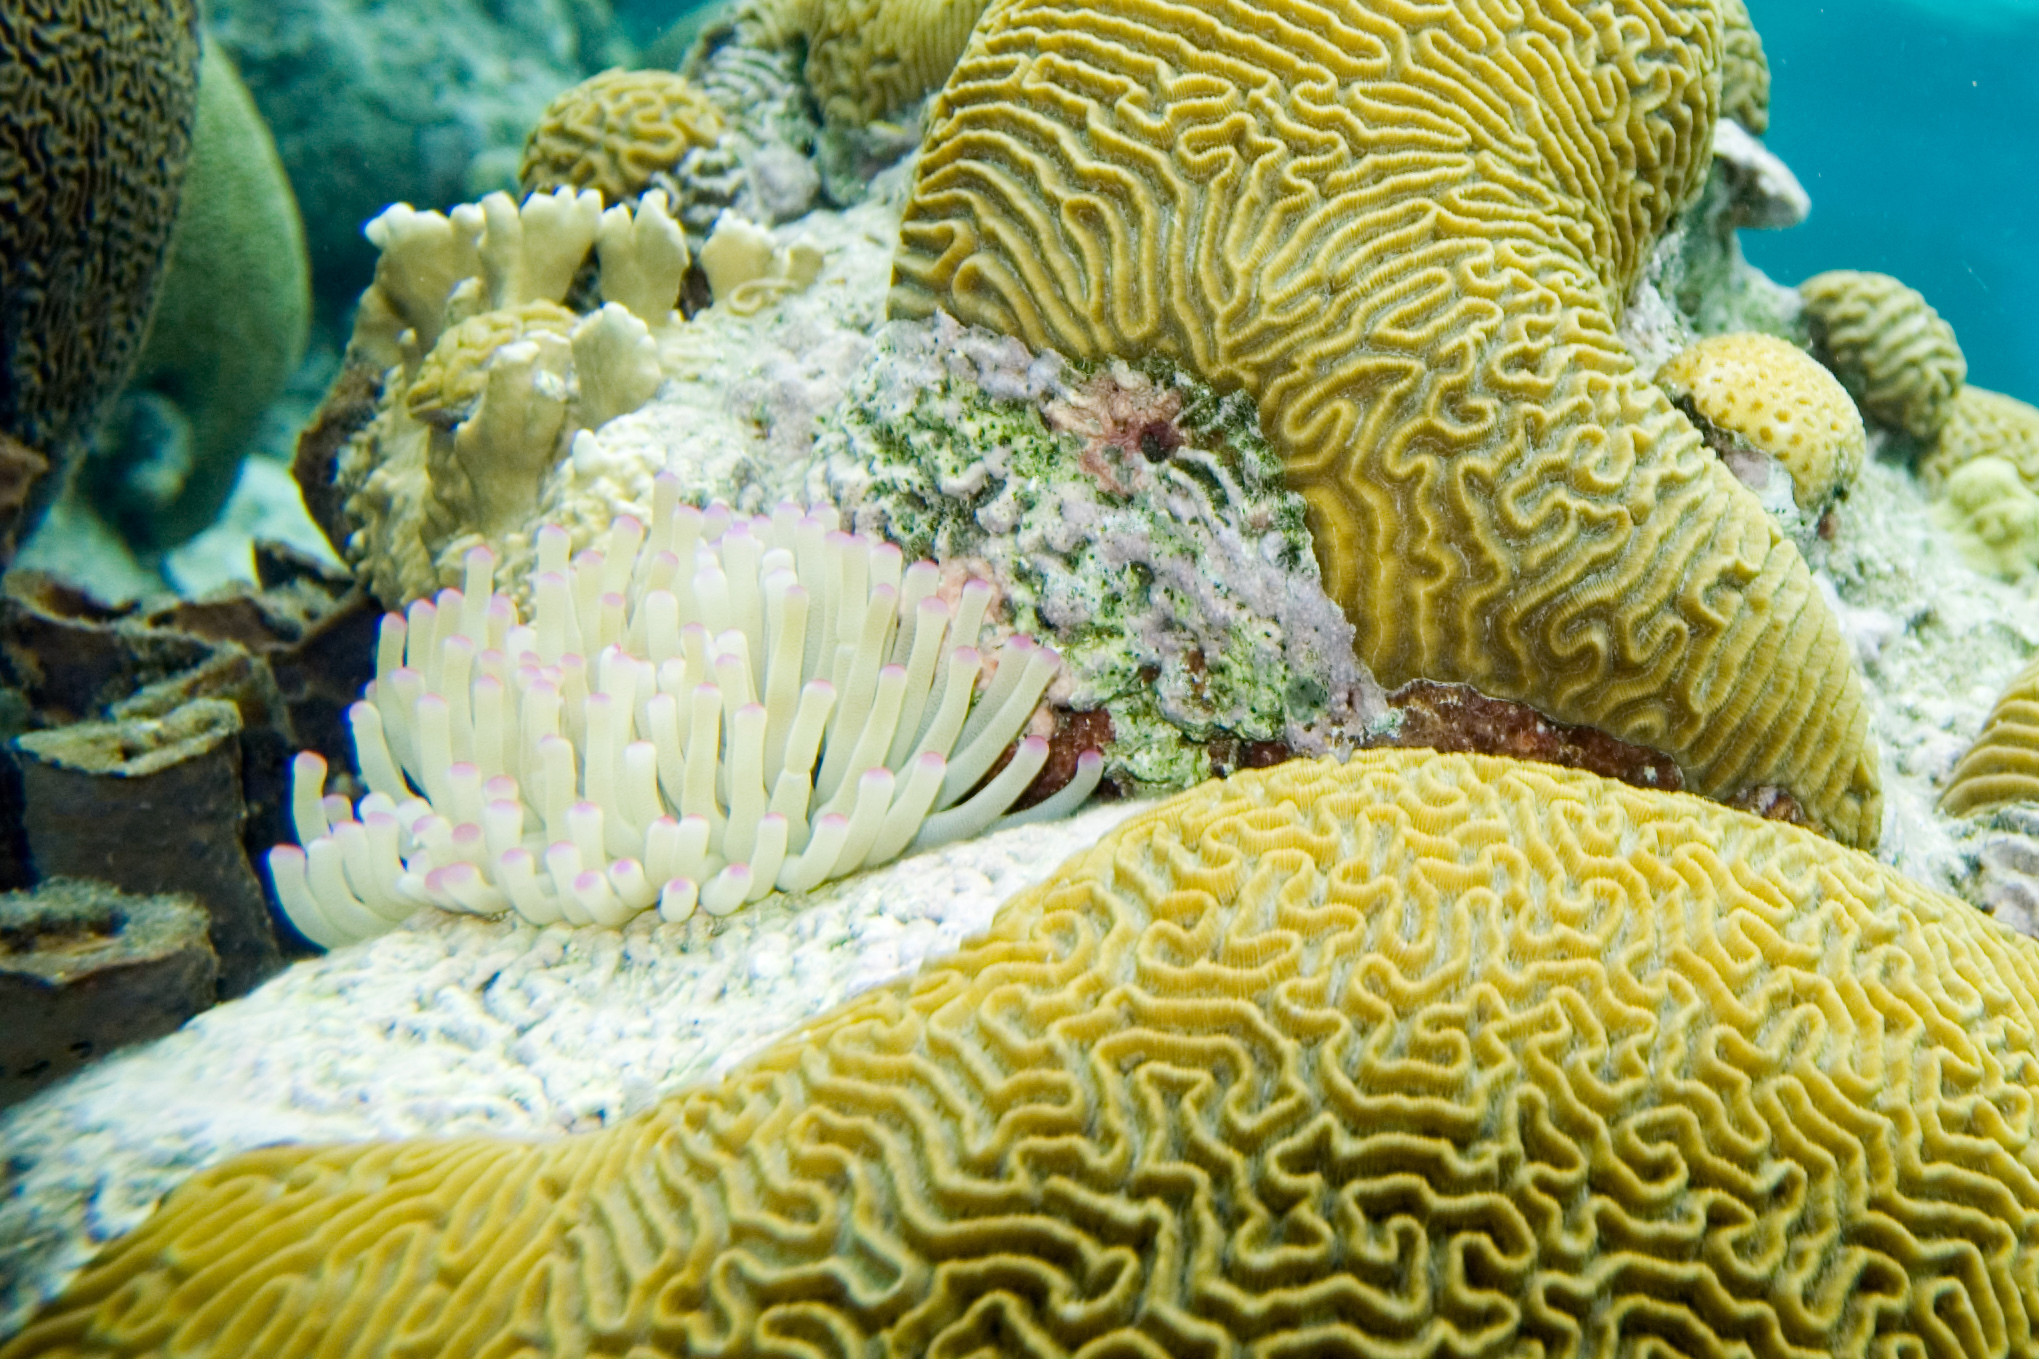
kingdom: Animalia
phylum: Cnidaria
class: Anthozoa
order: Actiniaria
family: Actiniidae
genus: Condylactis
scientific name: Condylactis gigantea
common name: Giant caribbean anemone
